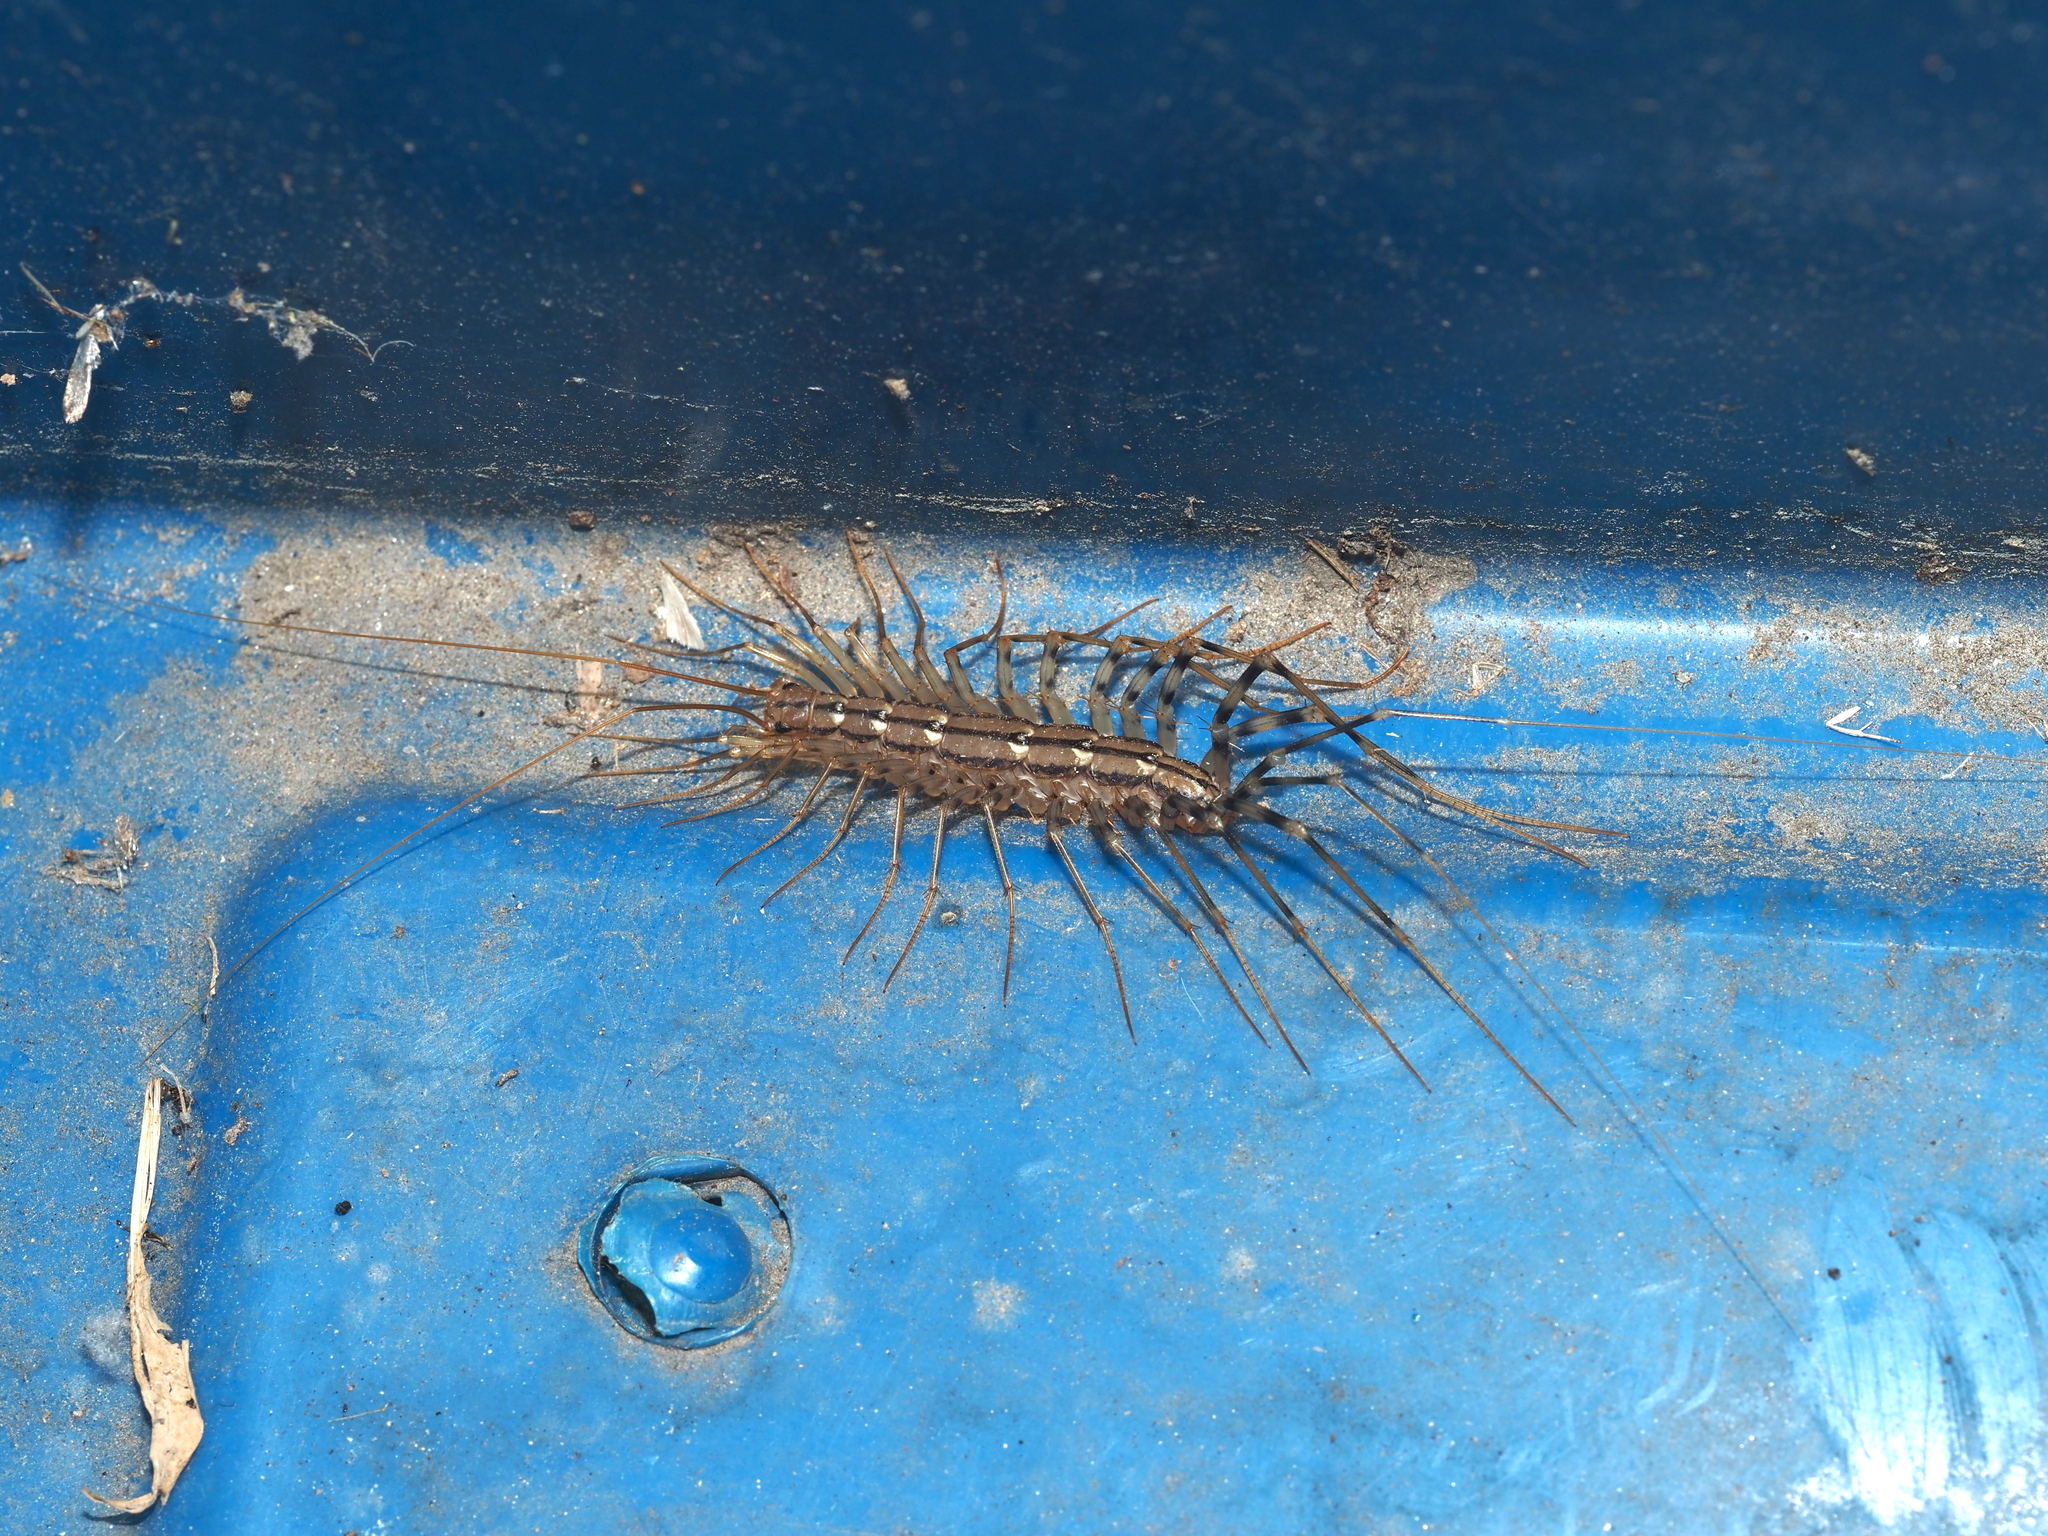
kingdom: Animalia
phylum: Arthropoda
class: Chilopoda
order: Scutigeromorpha
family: Scutigeridae
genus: Scutigera
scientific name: Scutigera coleoptrata
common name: House centipede
